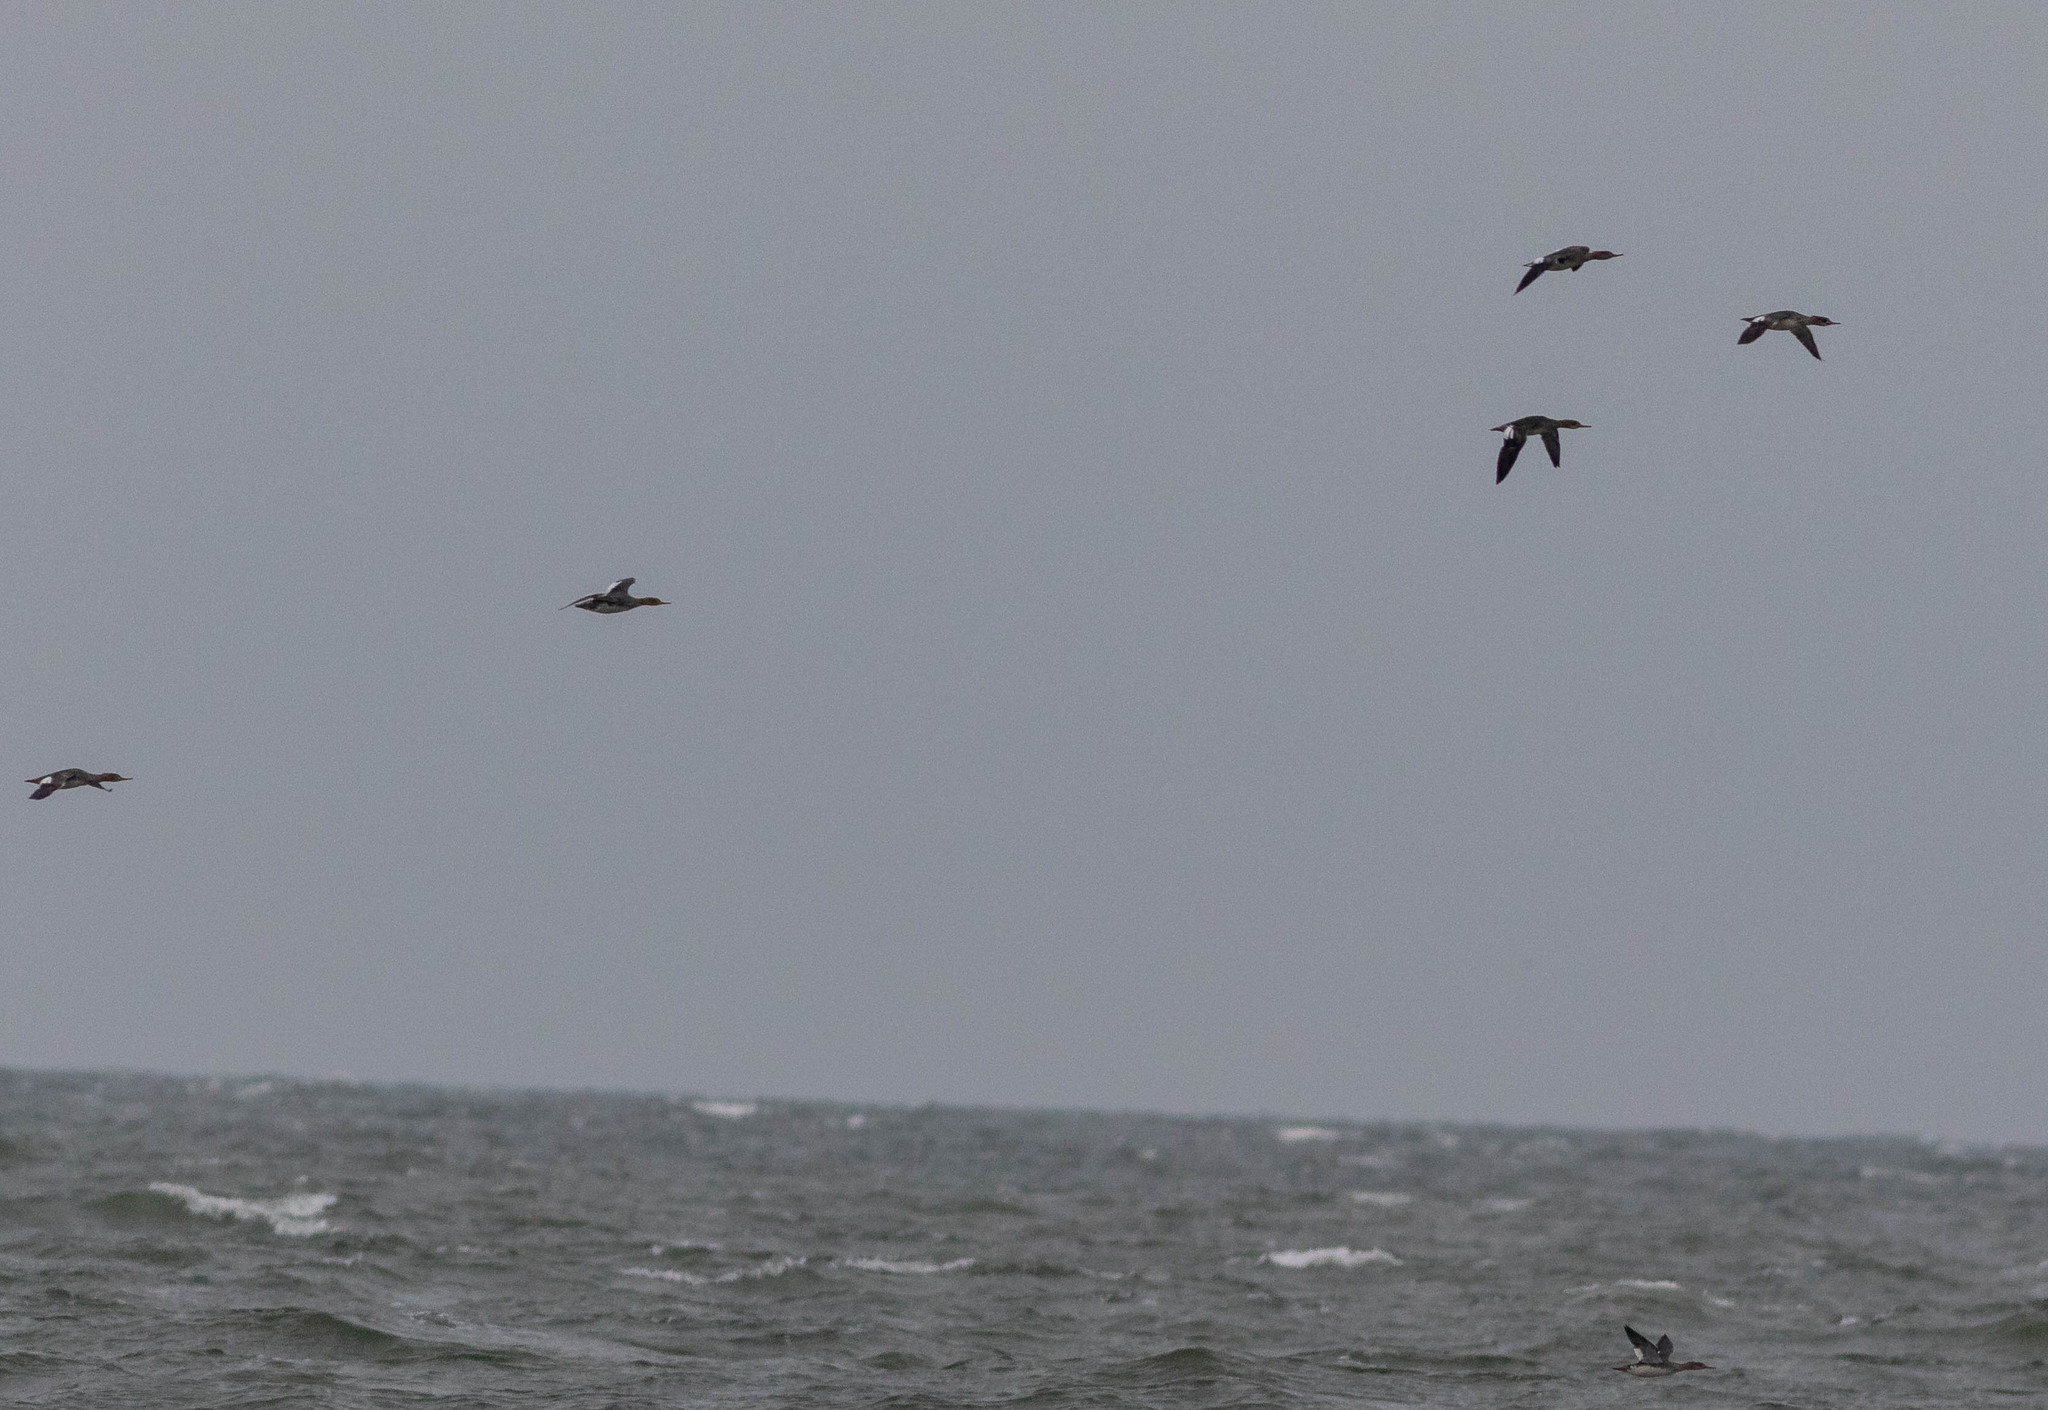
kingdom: Animalia
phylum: Chordata
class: Aves
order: Anseriformes
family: Anatidae
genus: Mergus
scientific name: Mergus serrator
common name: Red-breasted merganser
